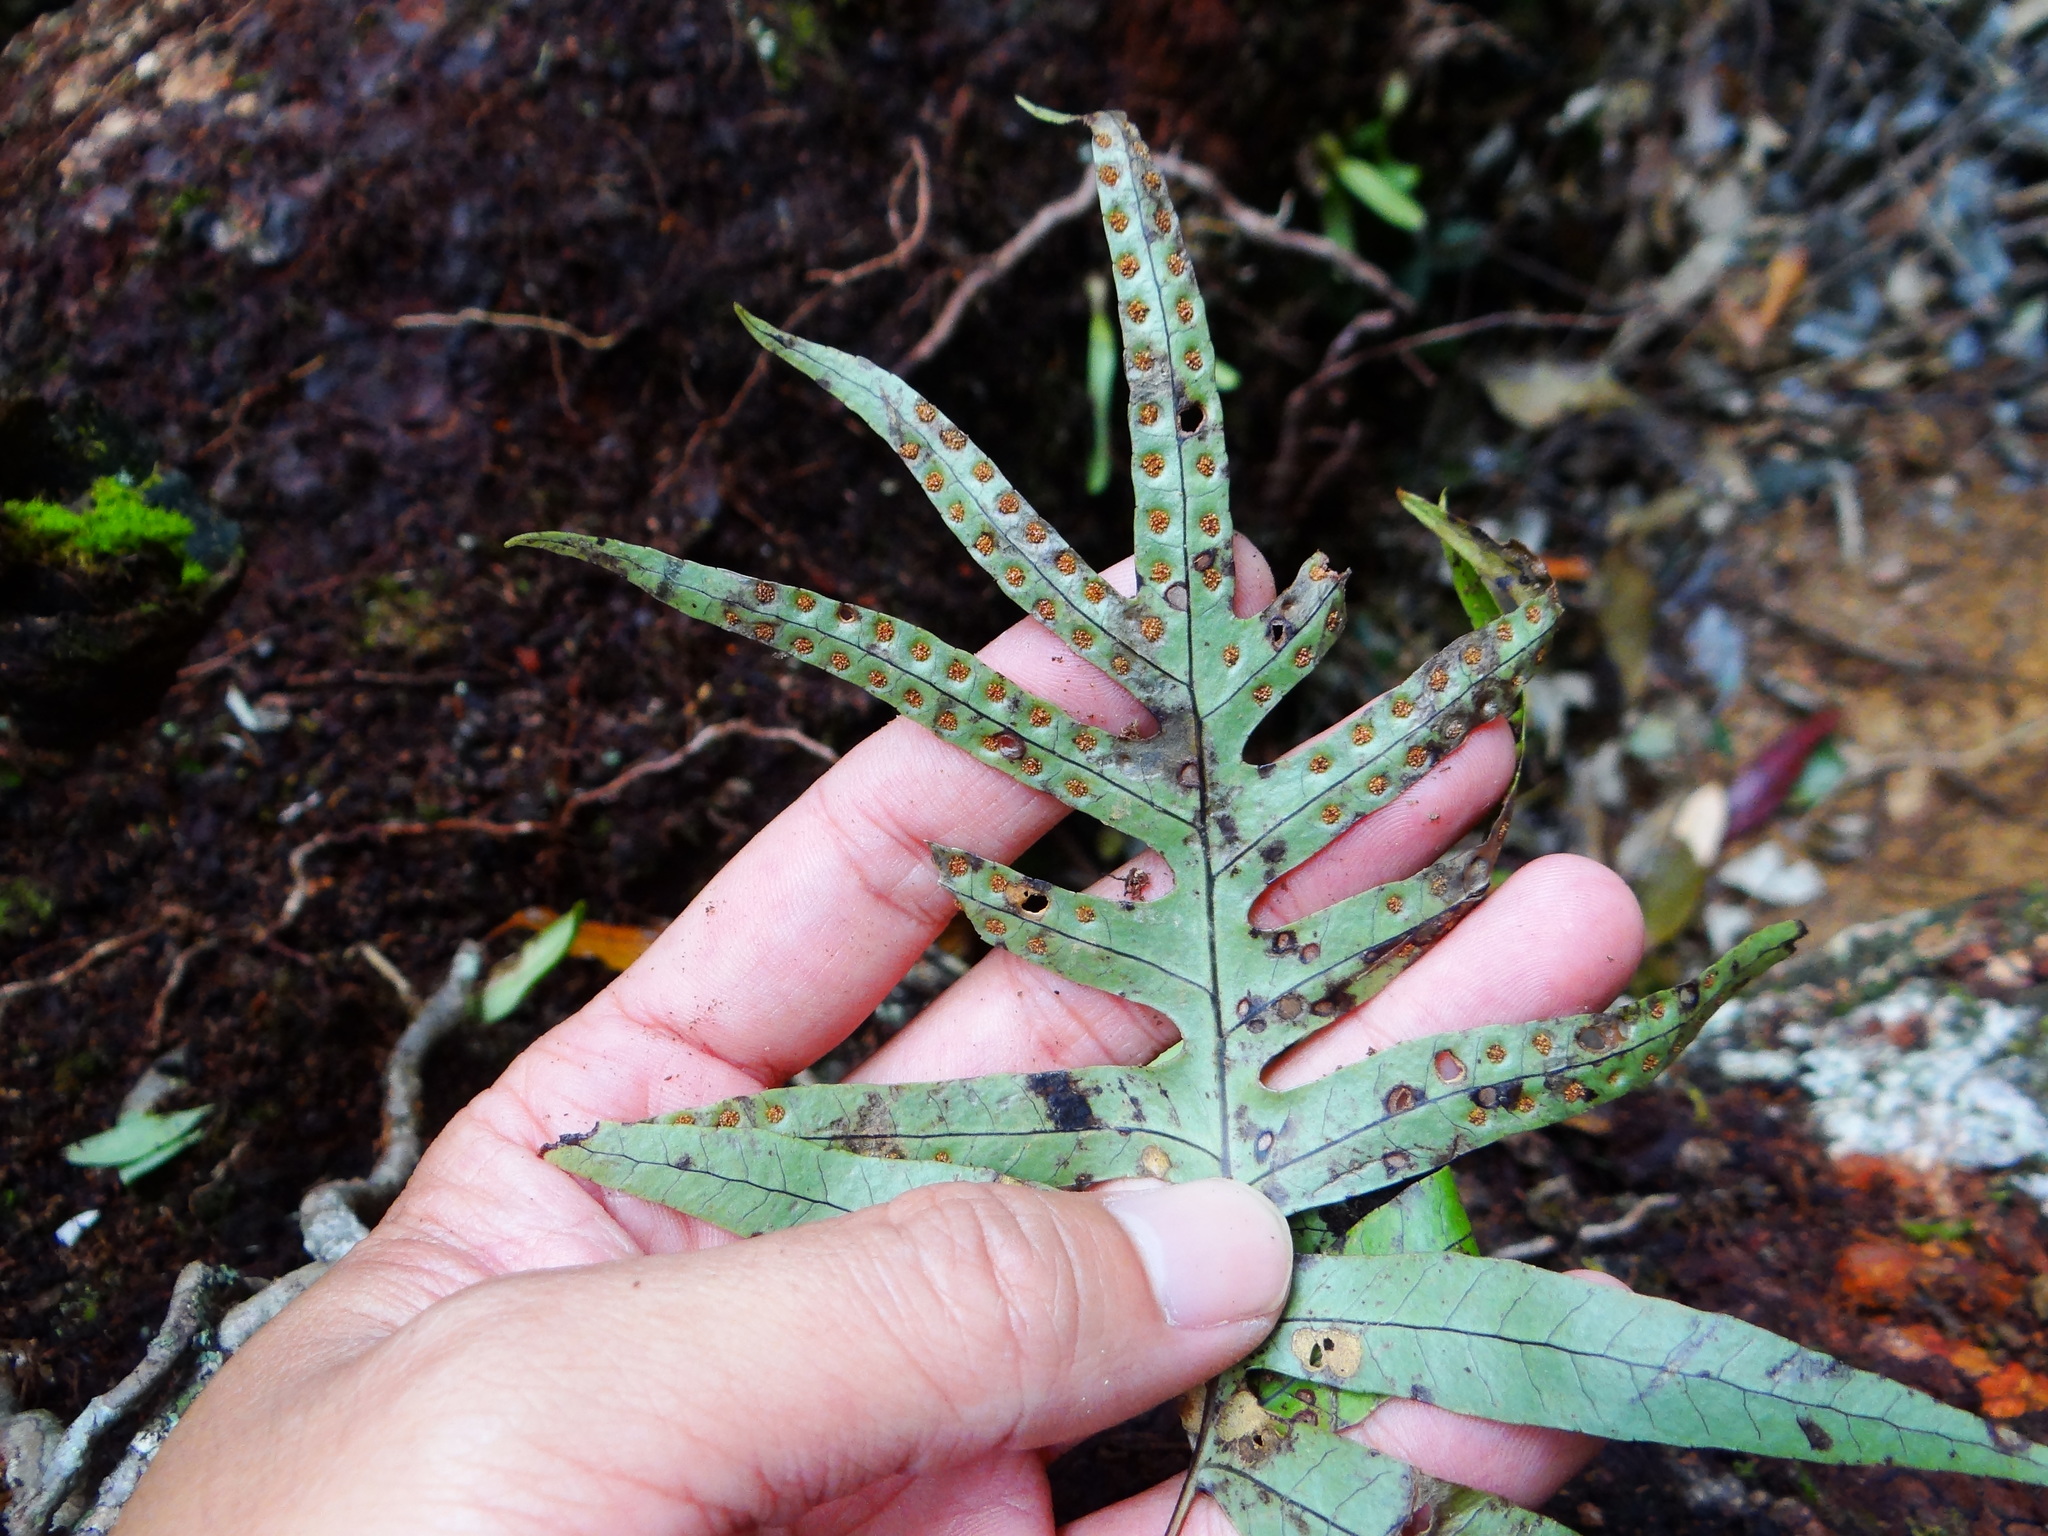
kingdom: Plantae
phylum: Tracheophyta
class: Polypodiopsida
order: Polypodiales
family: Polypodiaceae
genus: Selliguea
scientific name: Selliguea echinospora
